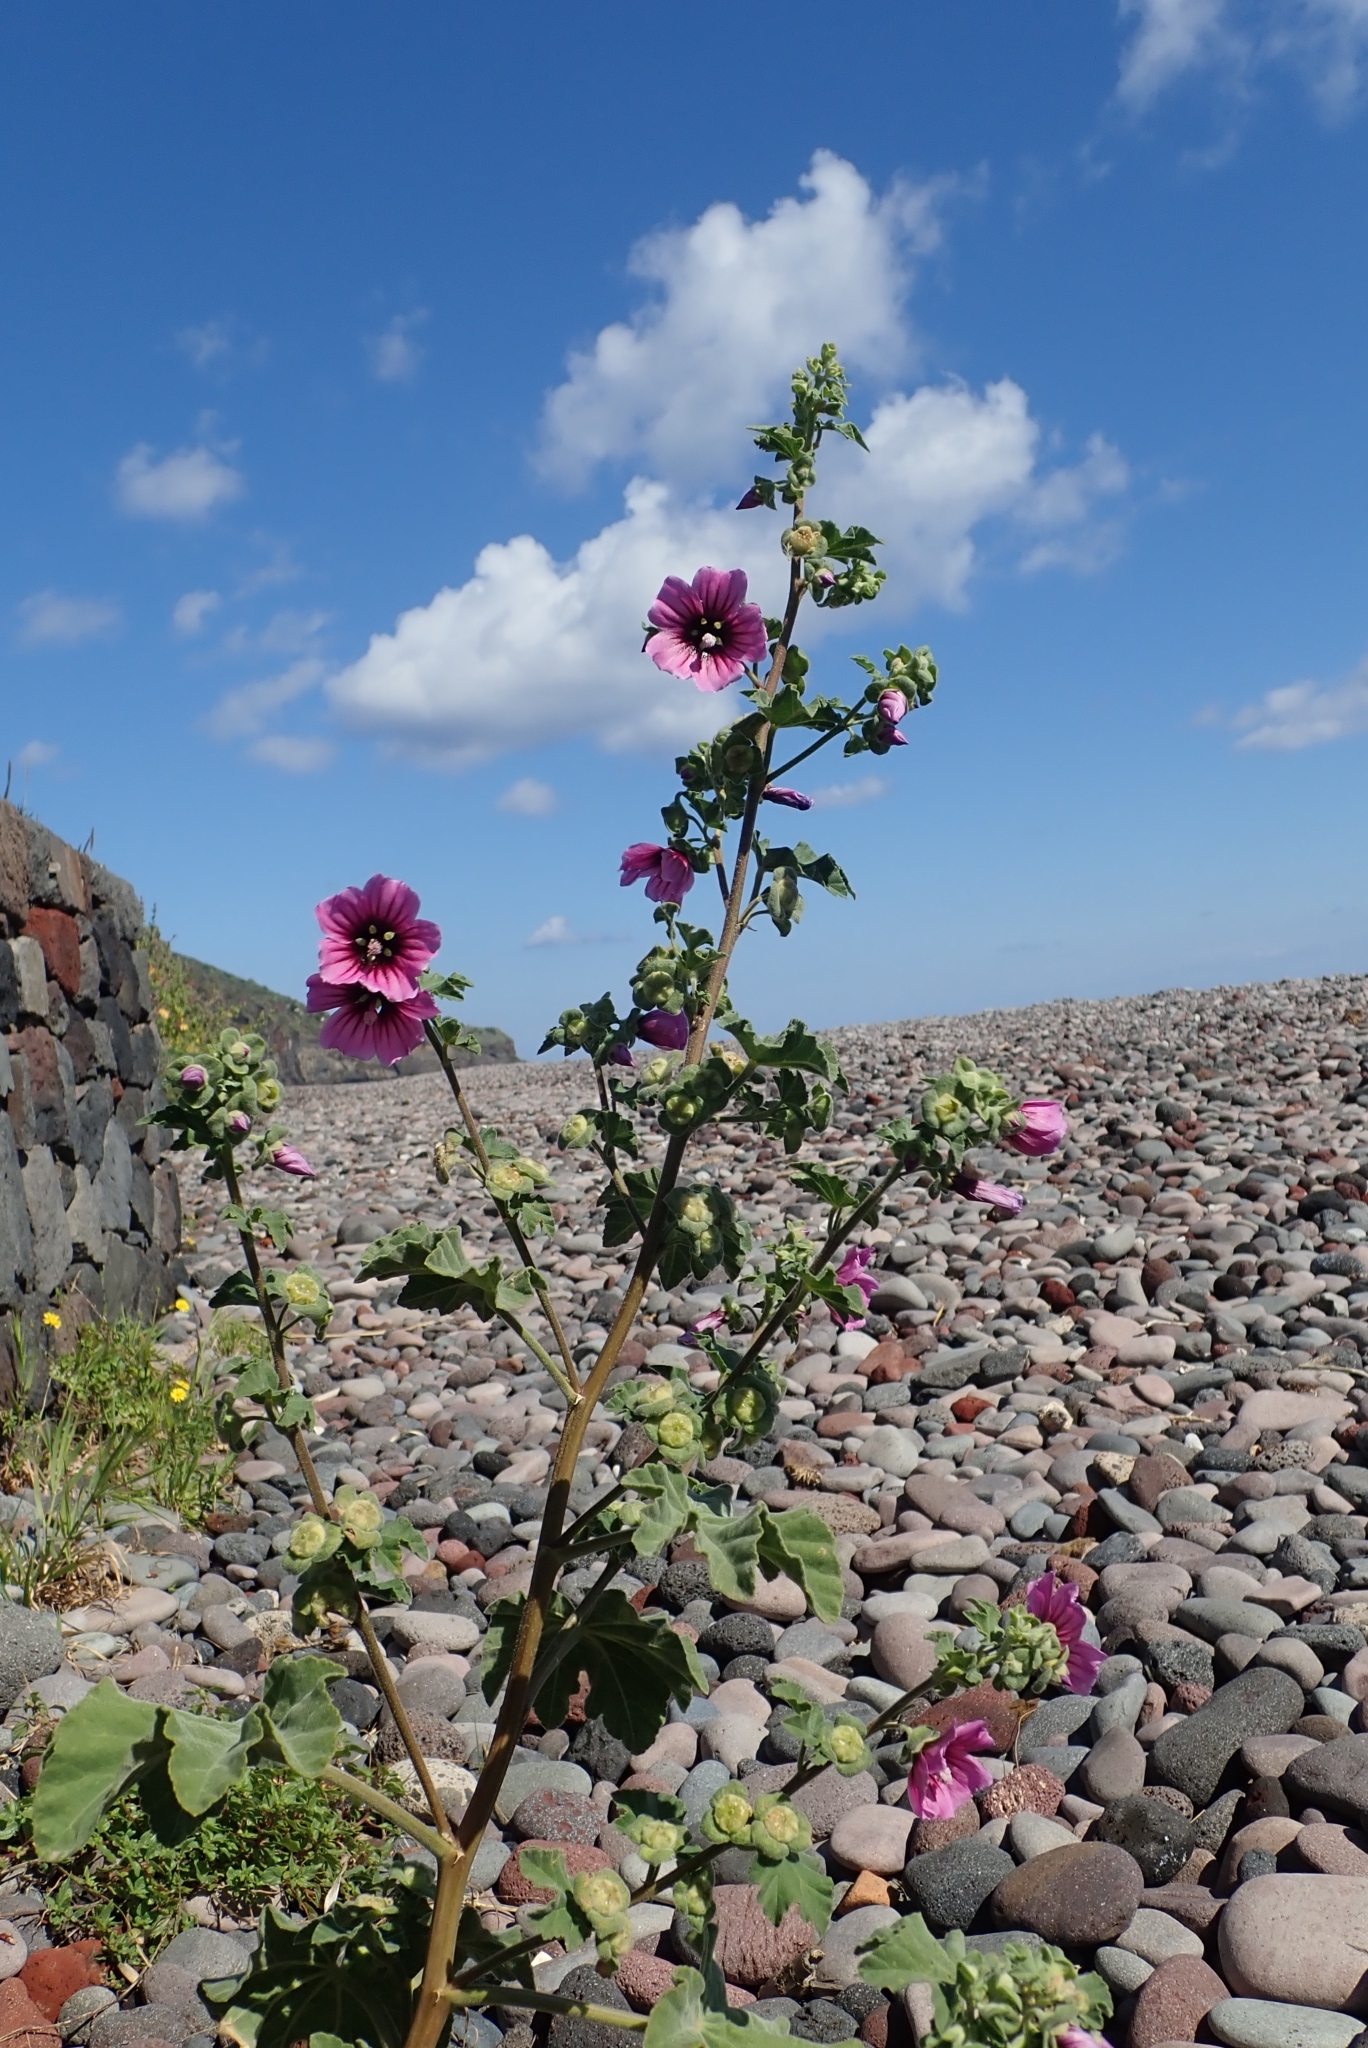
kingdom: Plantae
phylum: Tracheophyta
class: Magnoliopsida
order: Malvales
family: Malvaceae
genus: Malva
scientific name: Malva arborea
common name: Tree mallow
